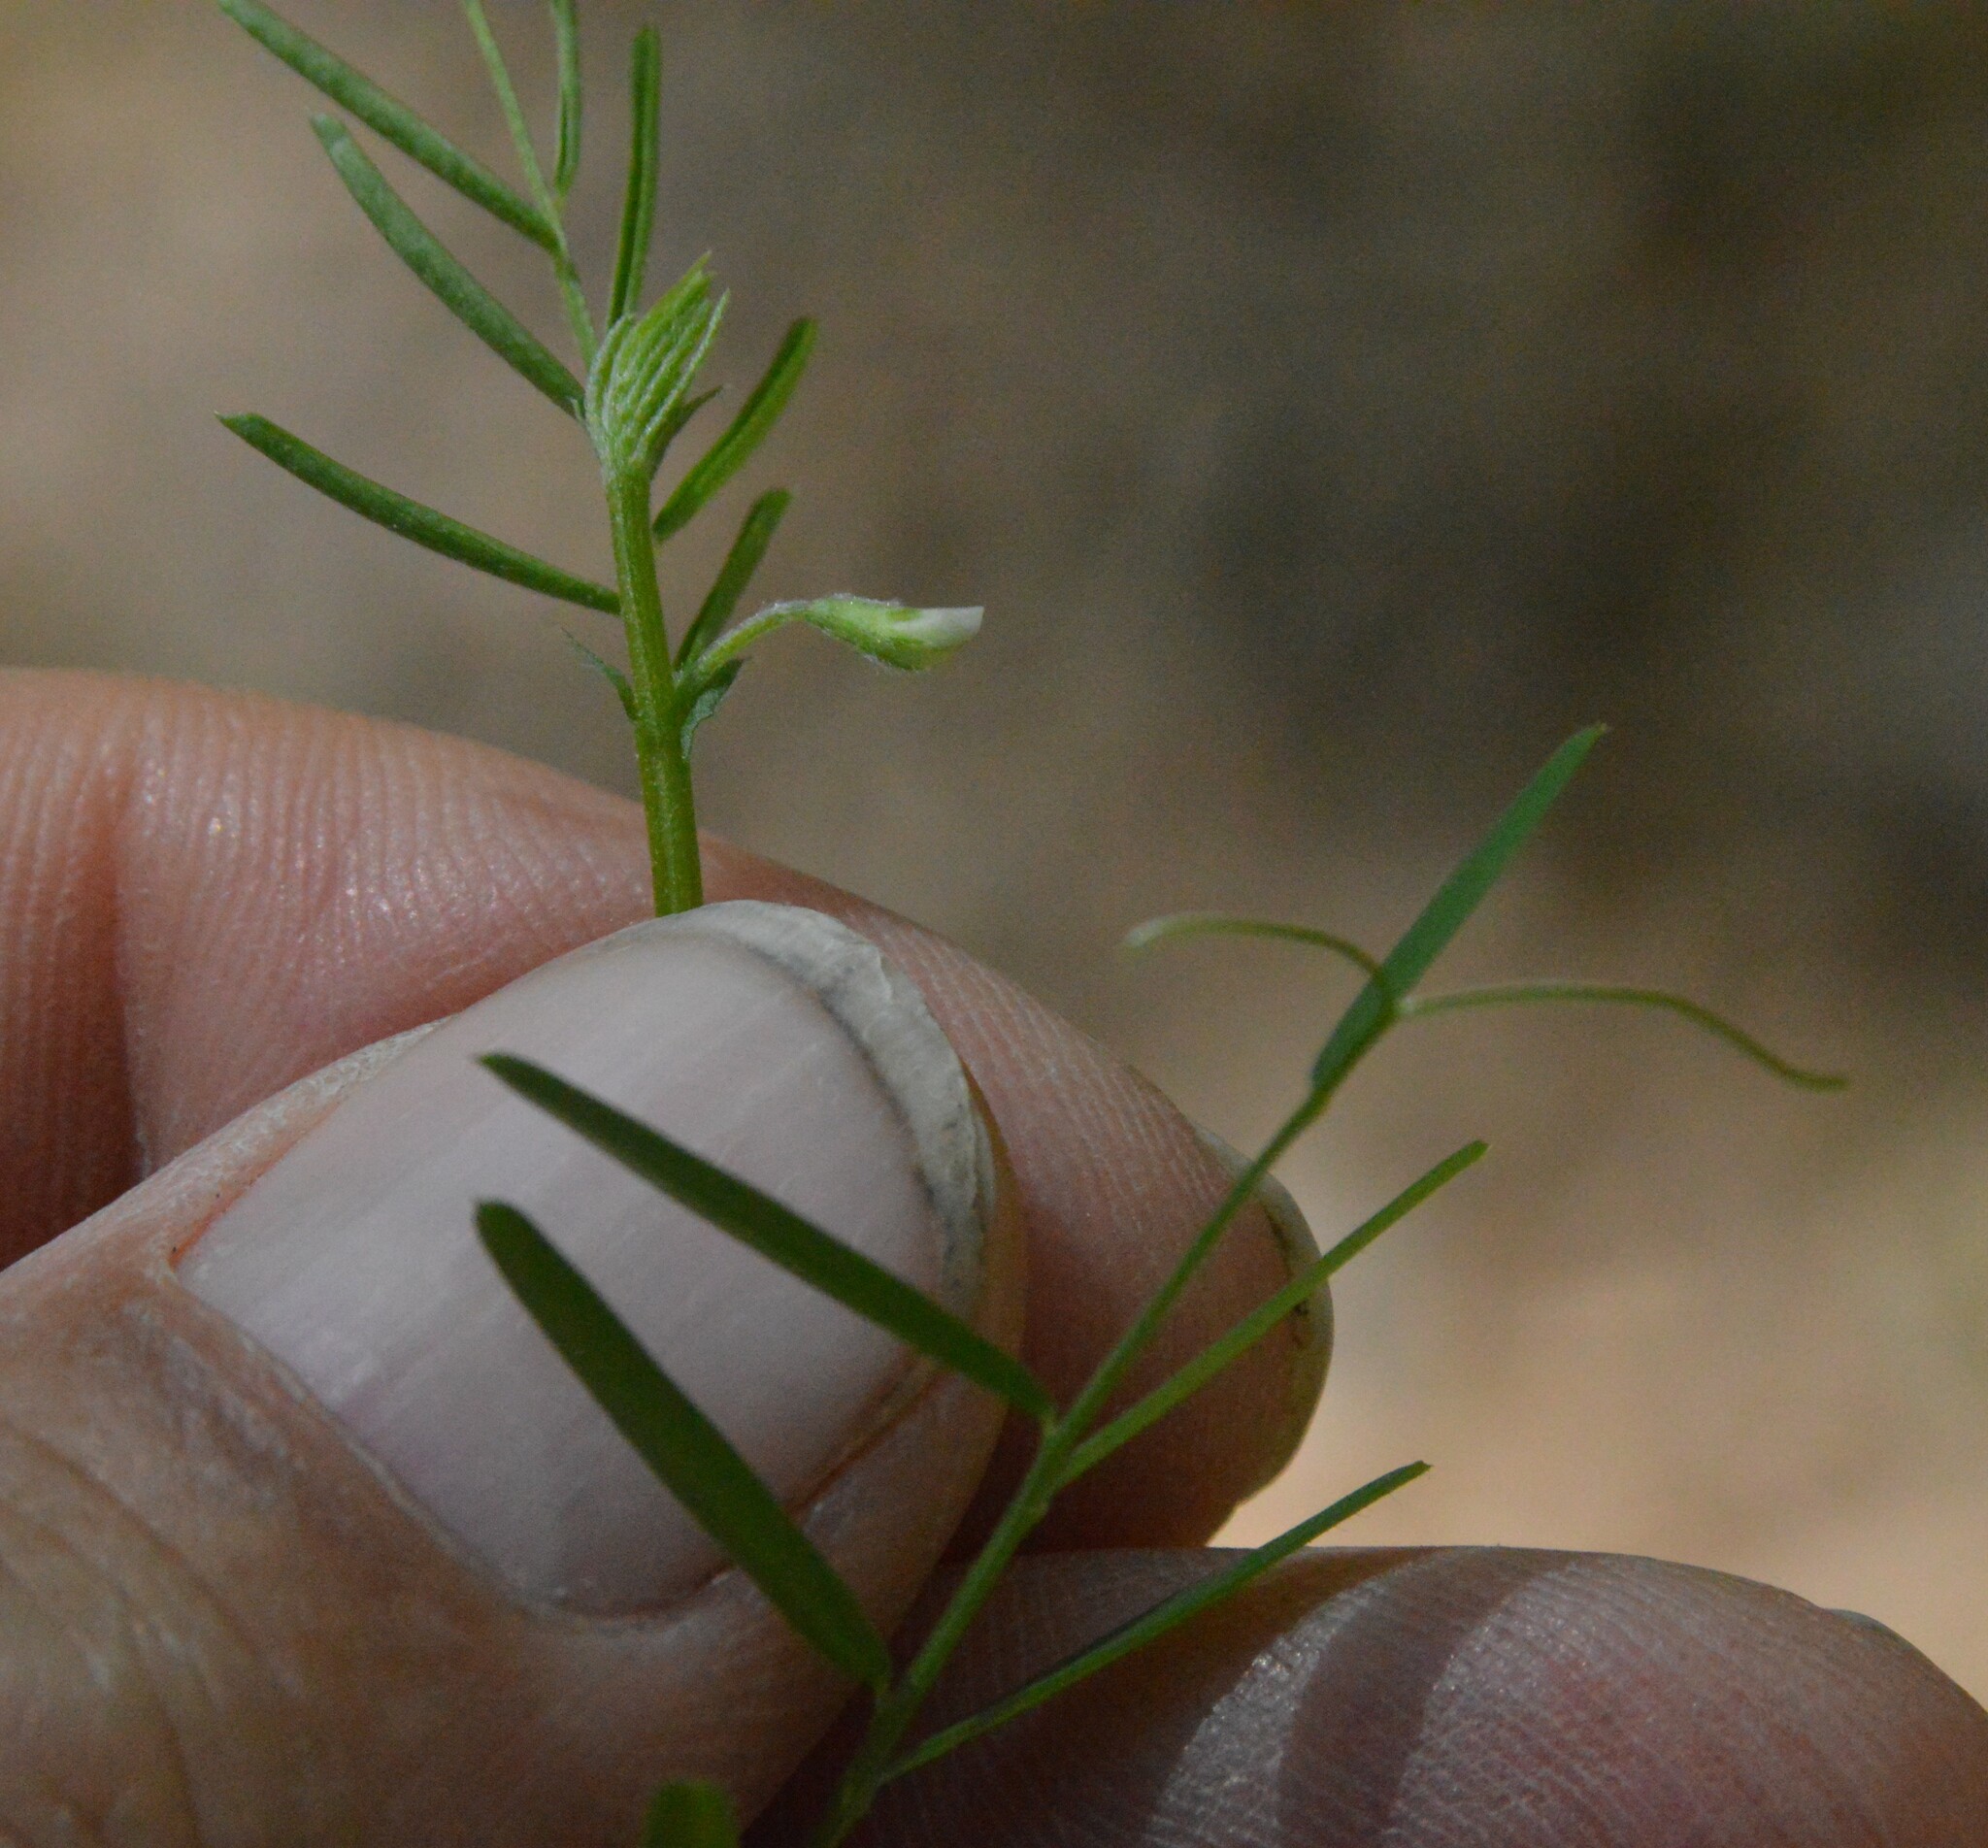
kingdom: Plantae
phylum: Tracheophyta
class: Magnoliopsida
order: Fabales
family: Fabaceae
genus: Vicia
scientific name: Vicia minutiflora
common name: Pygmy-flower vetch
